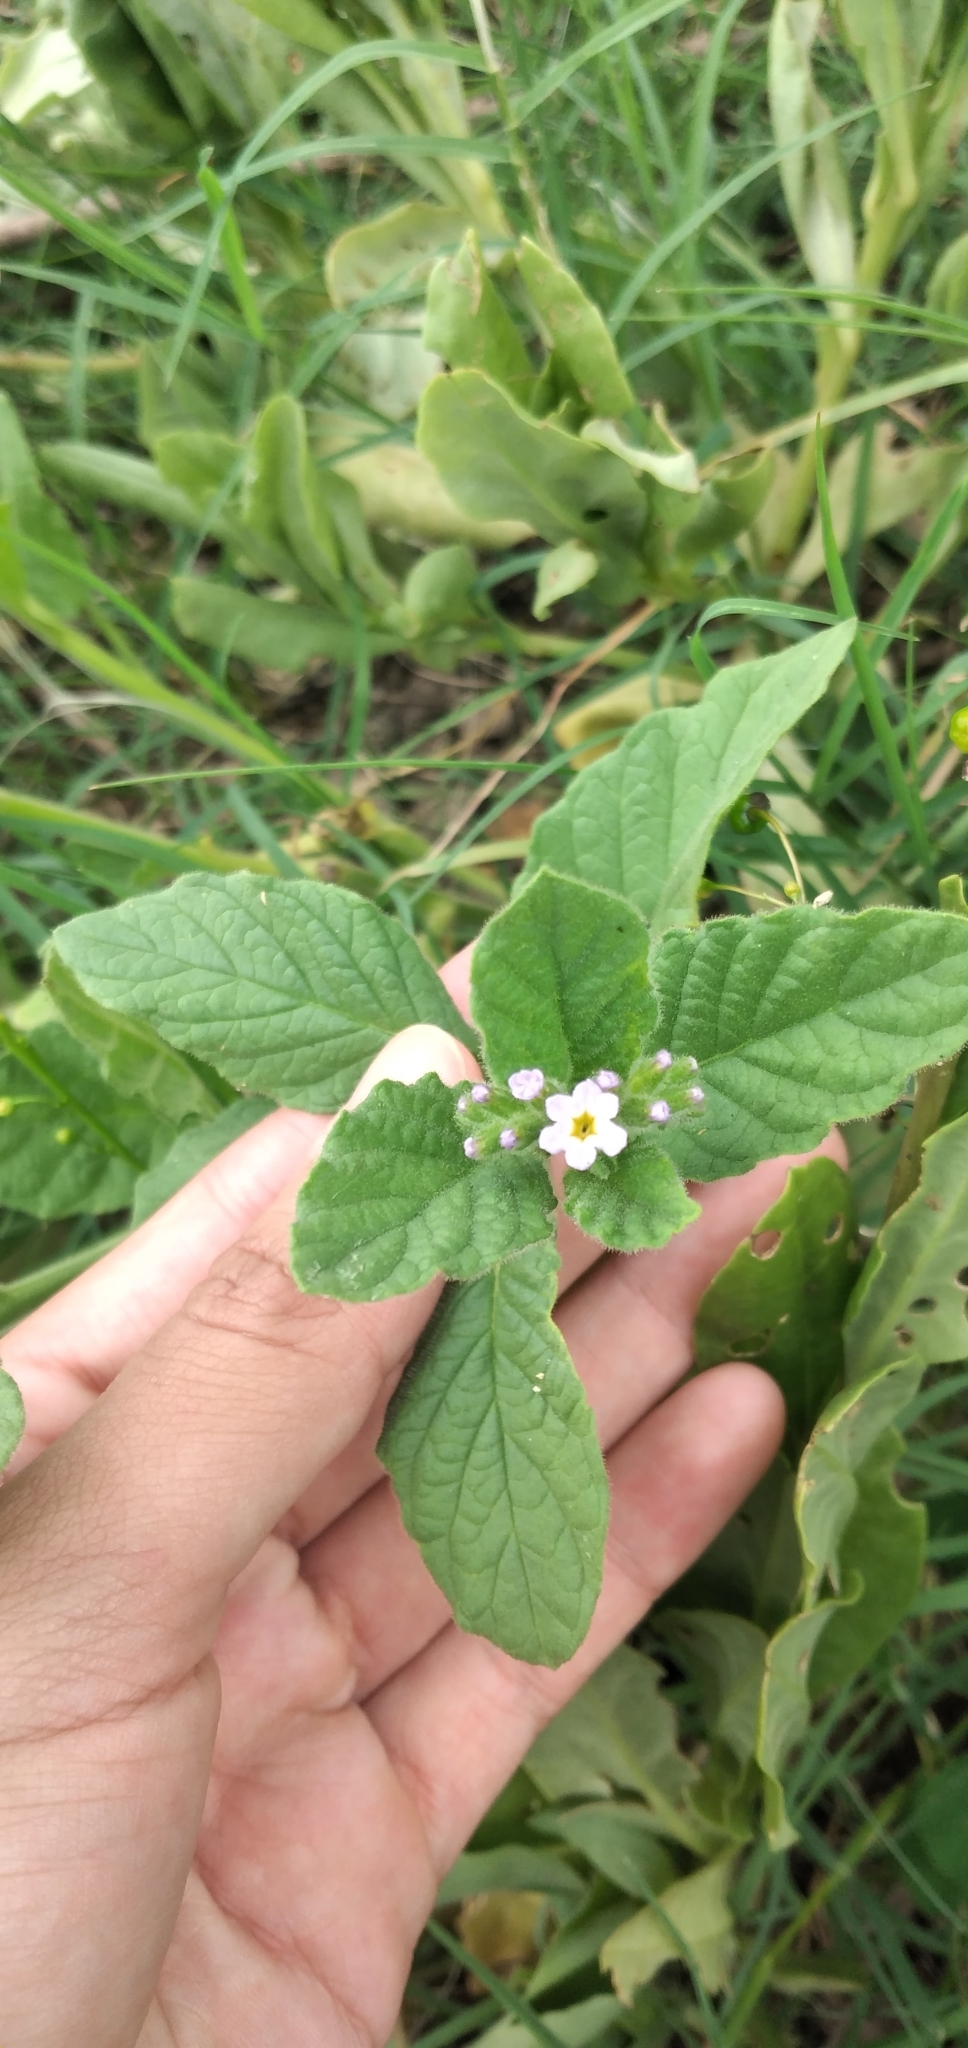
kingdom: Plantae
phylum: Tracheophyta
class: Magnoliopsida
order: Boraginales
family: Heliotropiaceae
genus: Heliotropium
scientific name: Heliotropium amplexicaule
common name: Clasping heliotrope
